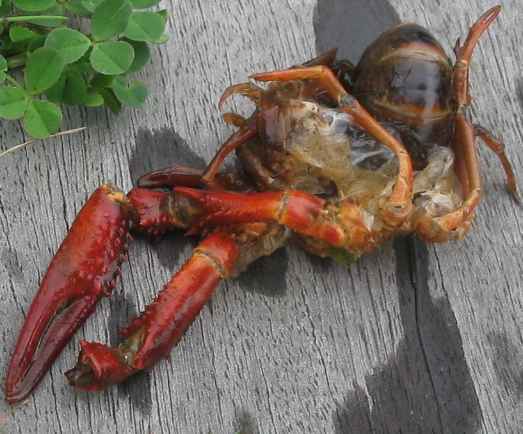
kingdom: Animalia
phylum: Arthropoda
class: Malacostraca
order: Decapoda
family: Cambaridae
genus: Procambarus
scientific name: Procambarus clarkii
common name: Red swamp crayfish
